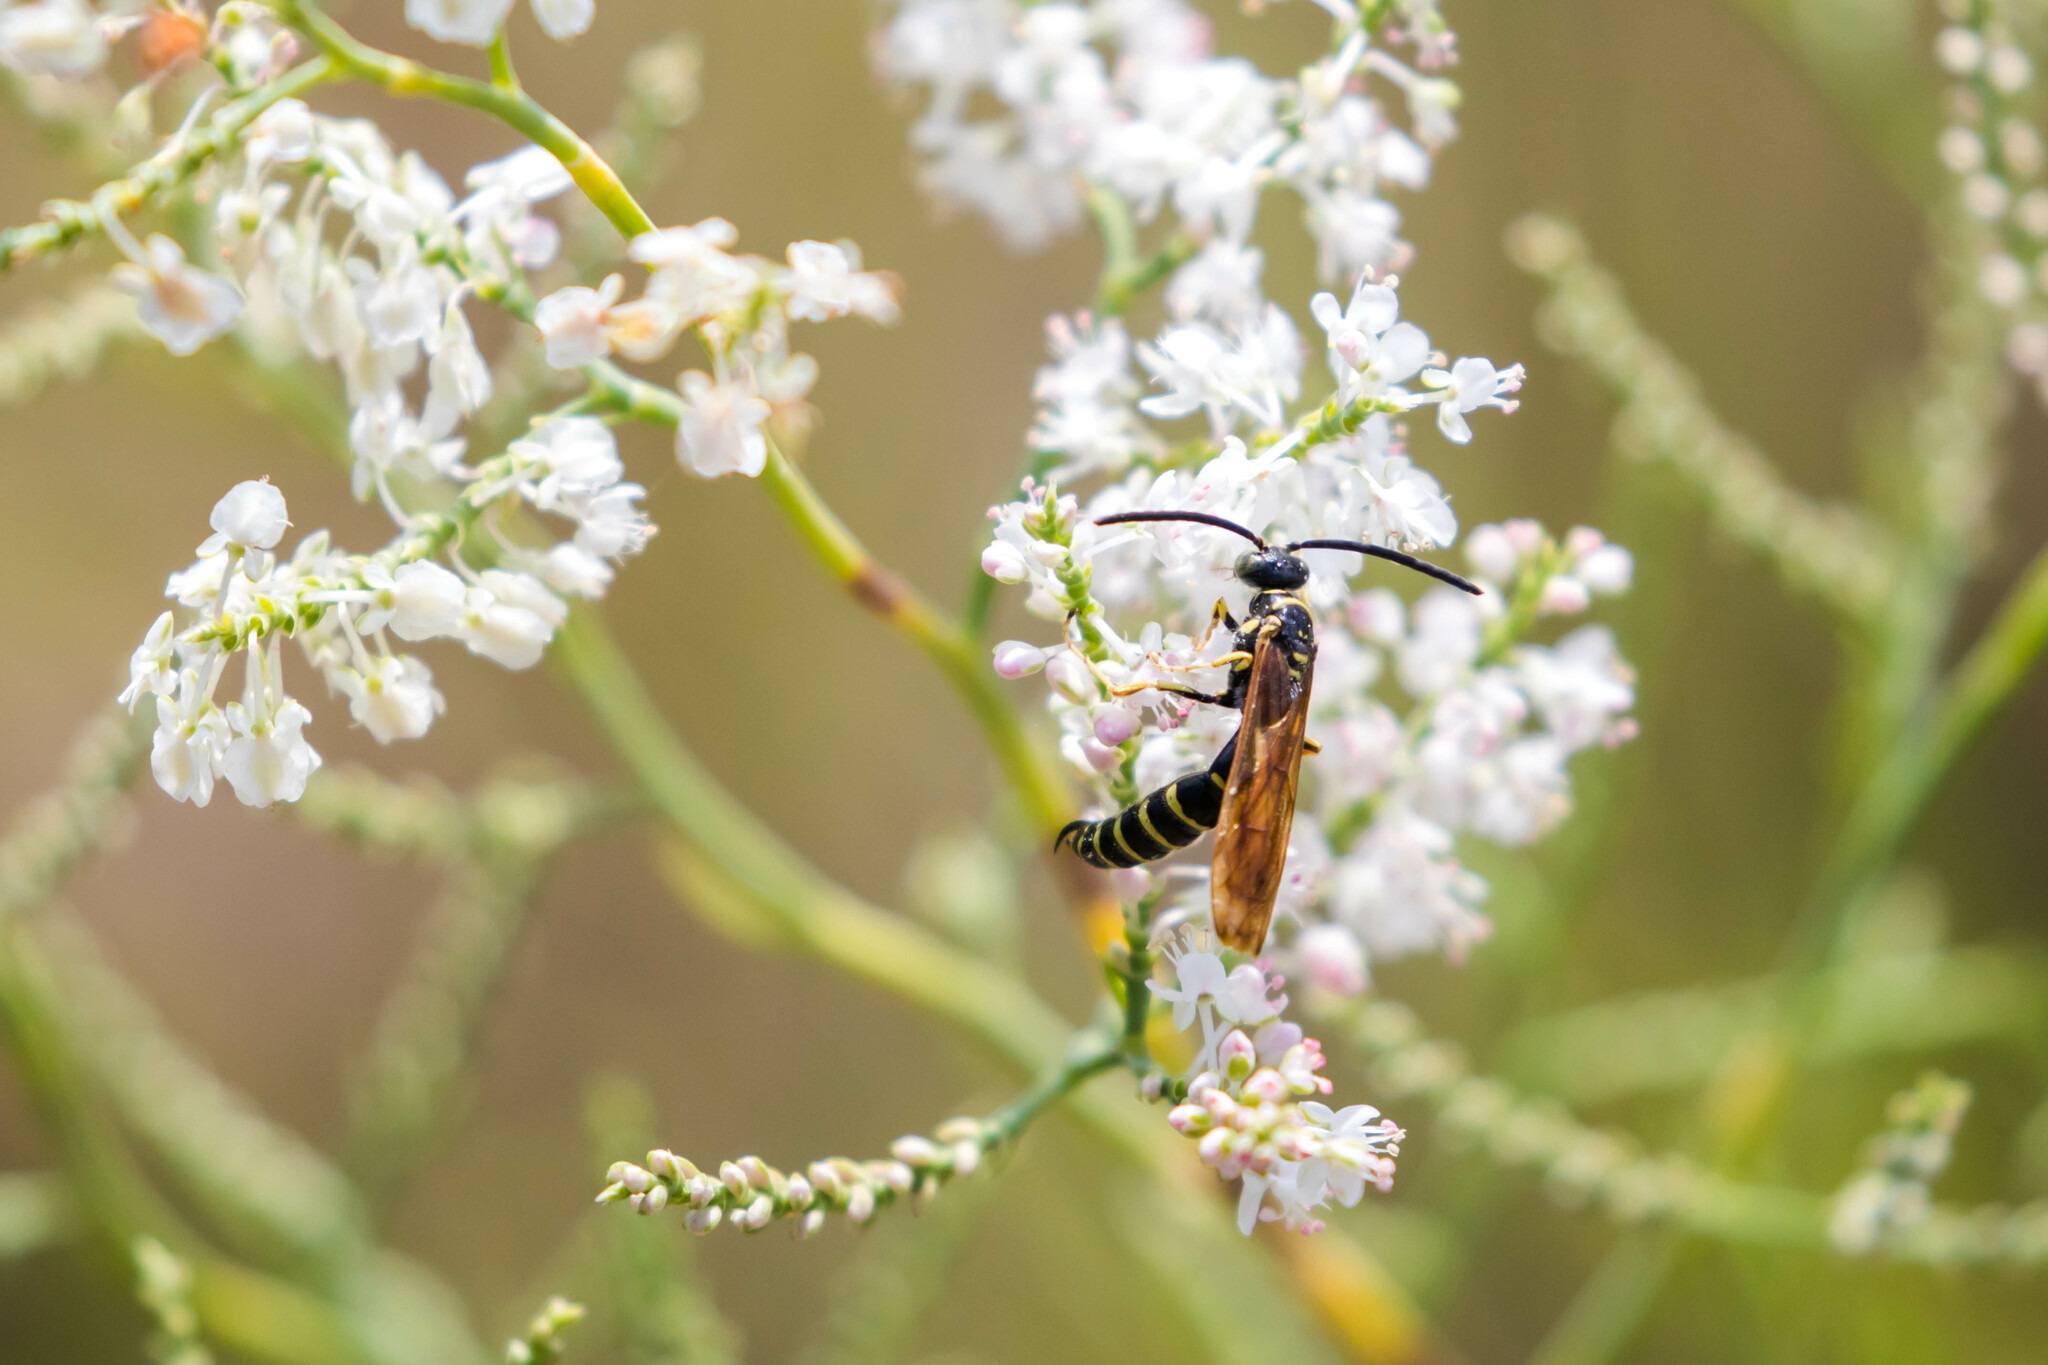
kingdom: Animalia
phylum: Arthropoda
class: Insecta
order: Hymenoptera
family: Tiphiidae
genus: Myzinum
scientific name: Myzinum quinquecinctum
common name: Five-banded thynnid wasp
